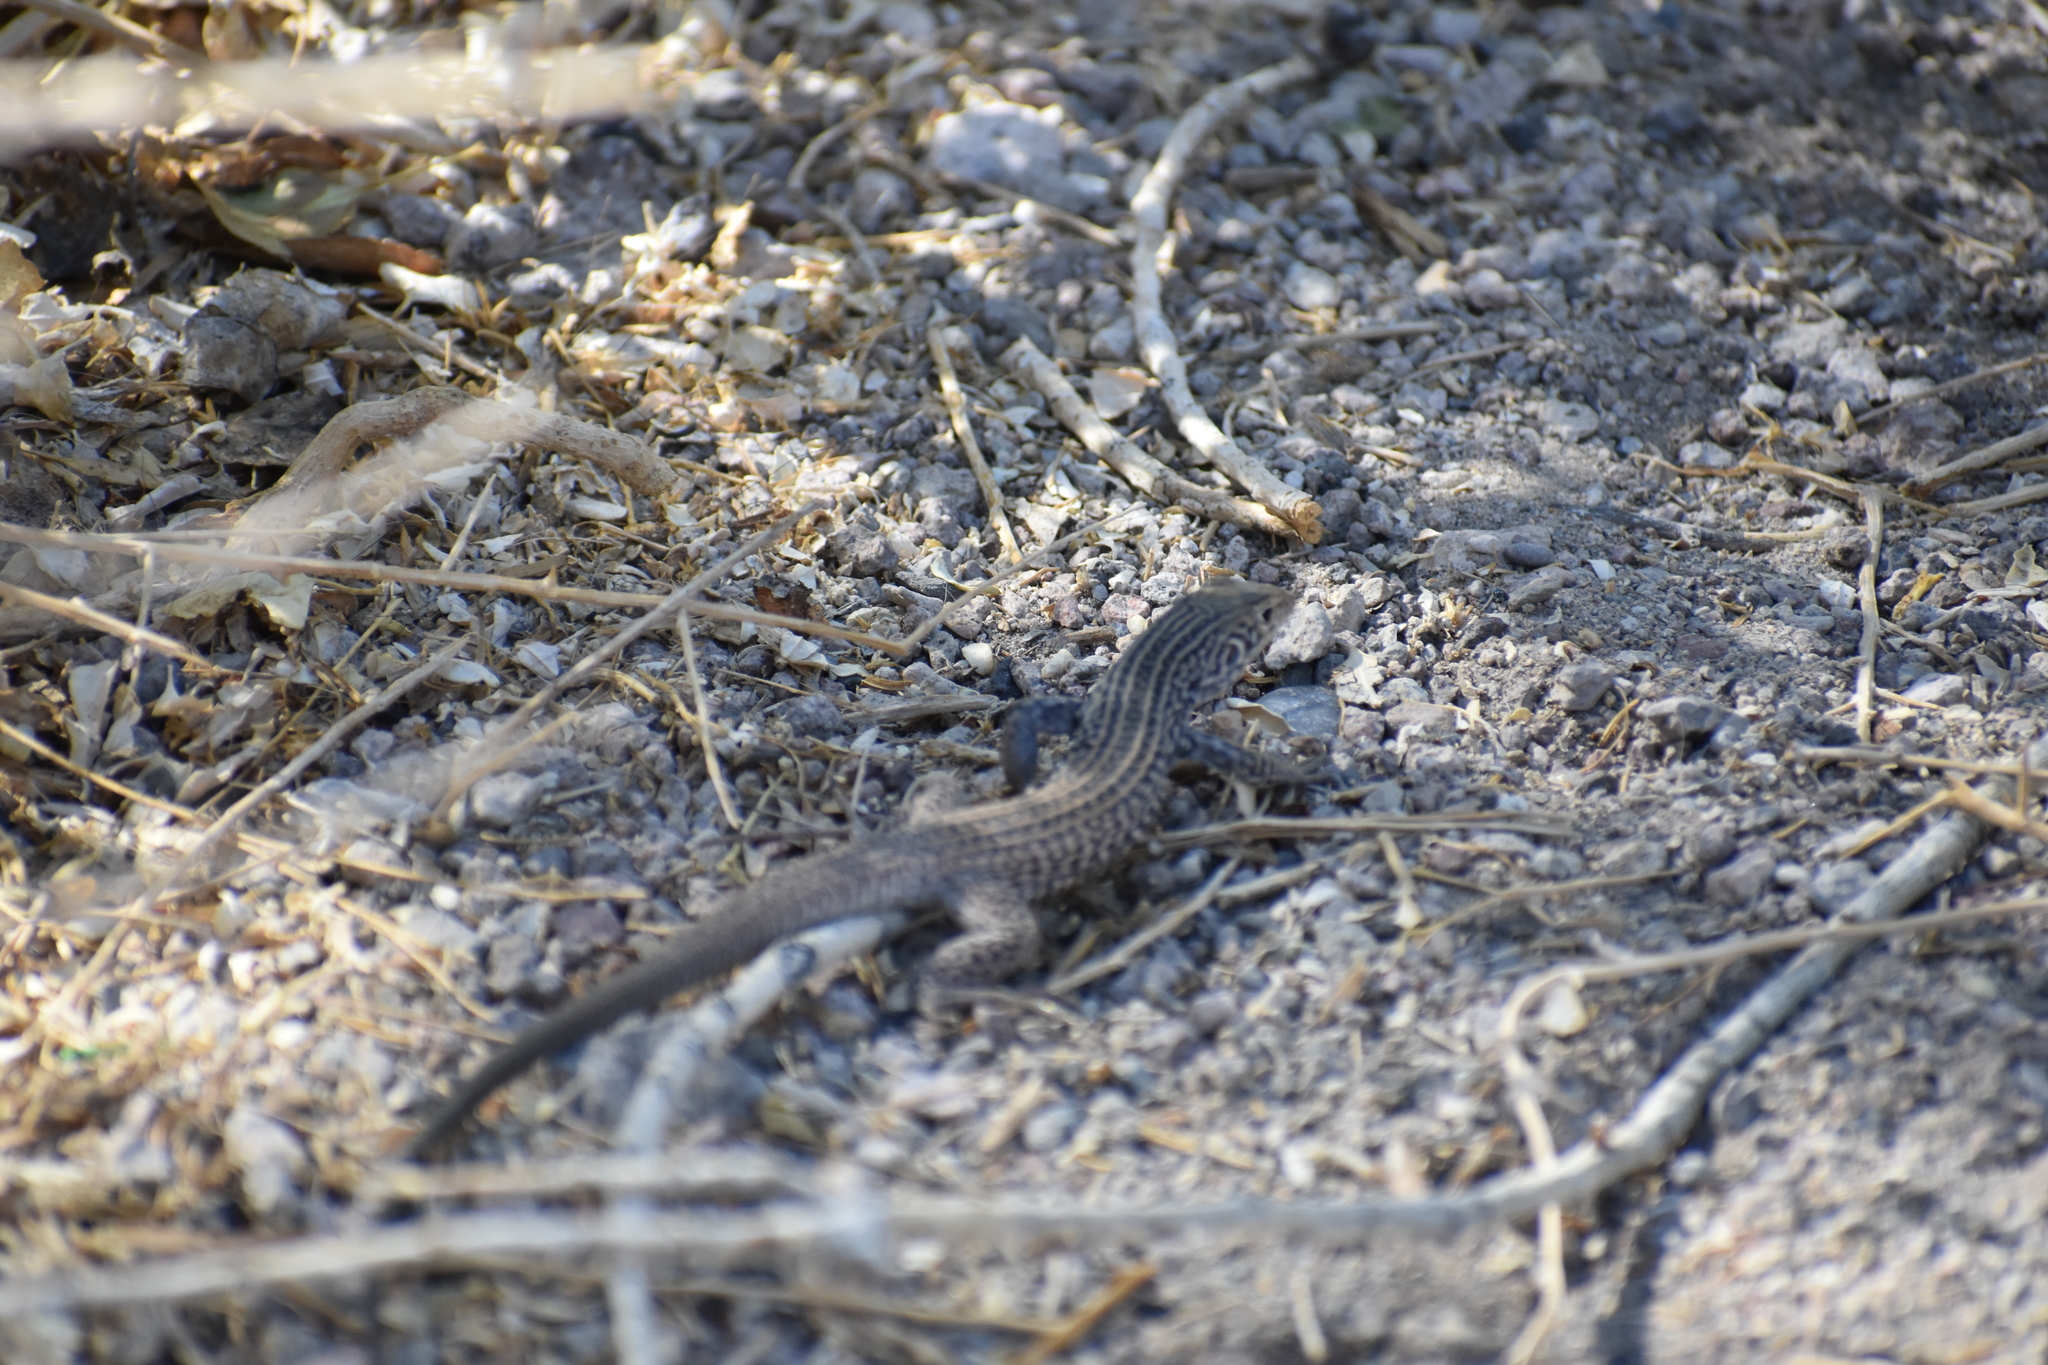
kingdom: Animalia
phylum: Chordata
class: Squamata
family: Teiidae
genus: Aspidoscelis
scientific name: Aspidoscelis tigris
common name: Tiger whiptail
